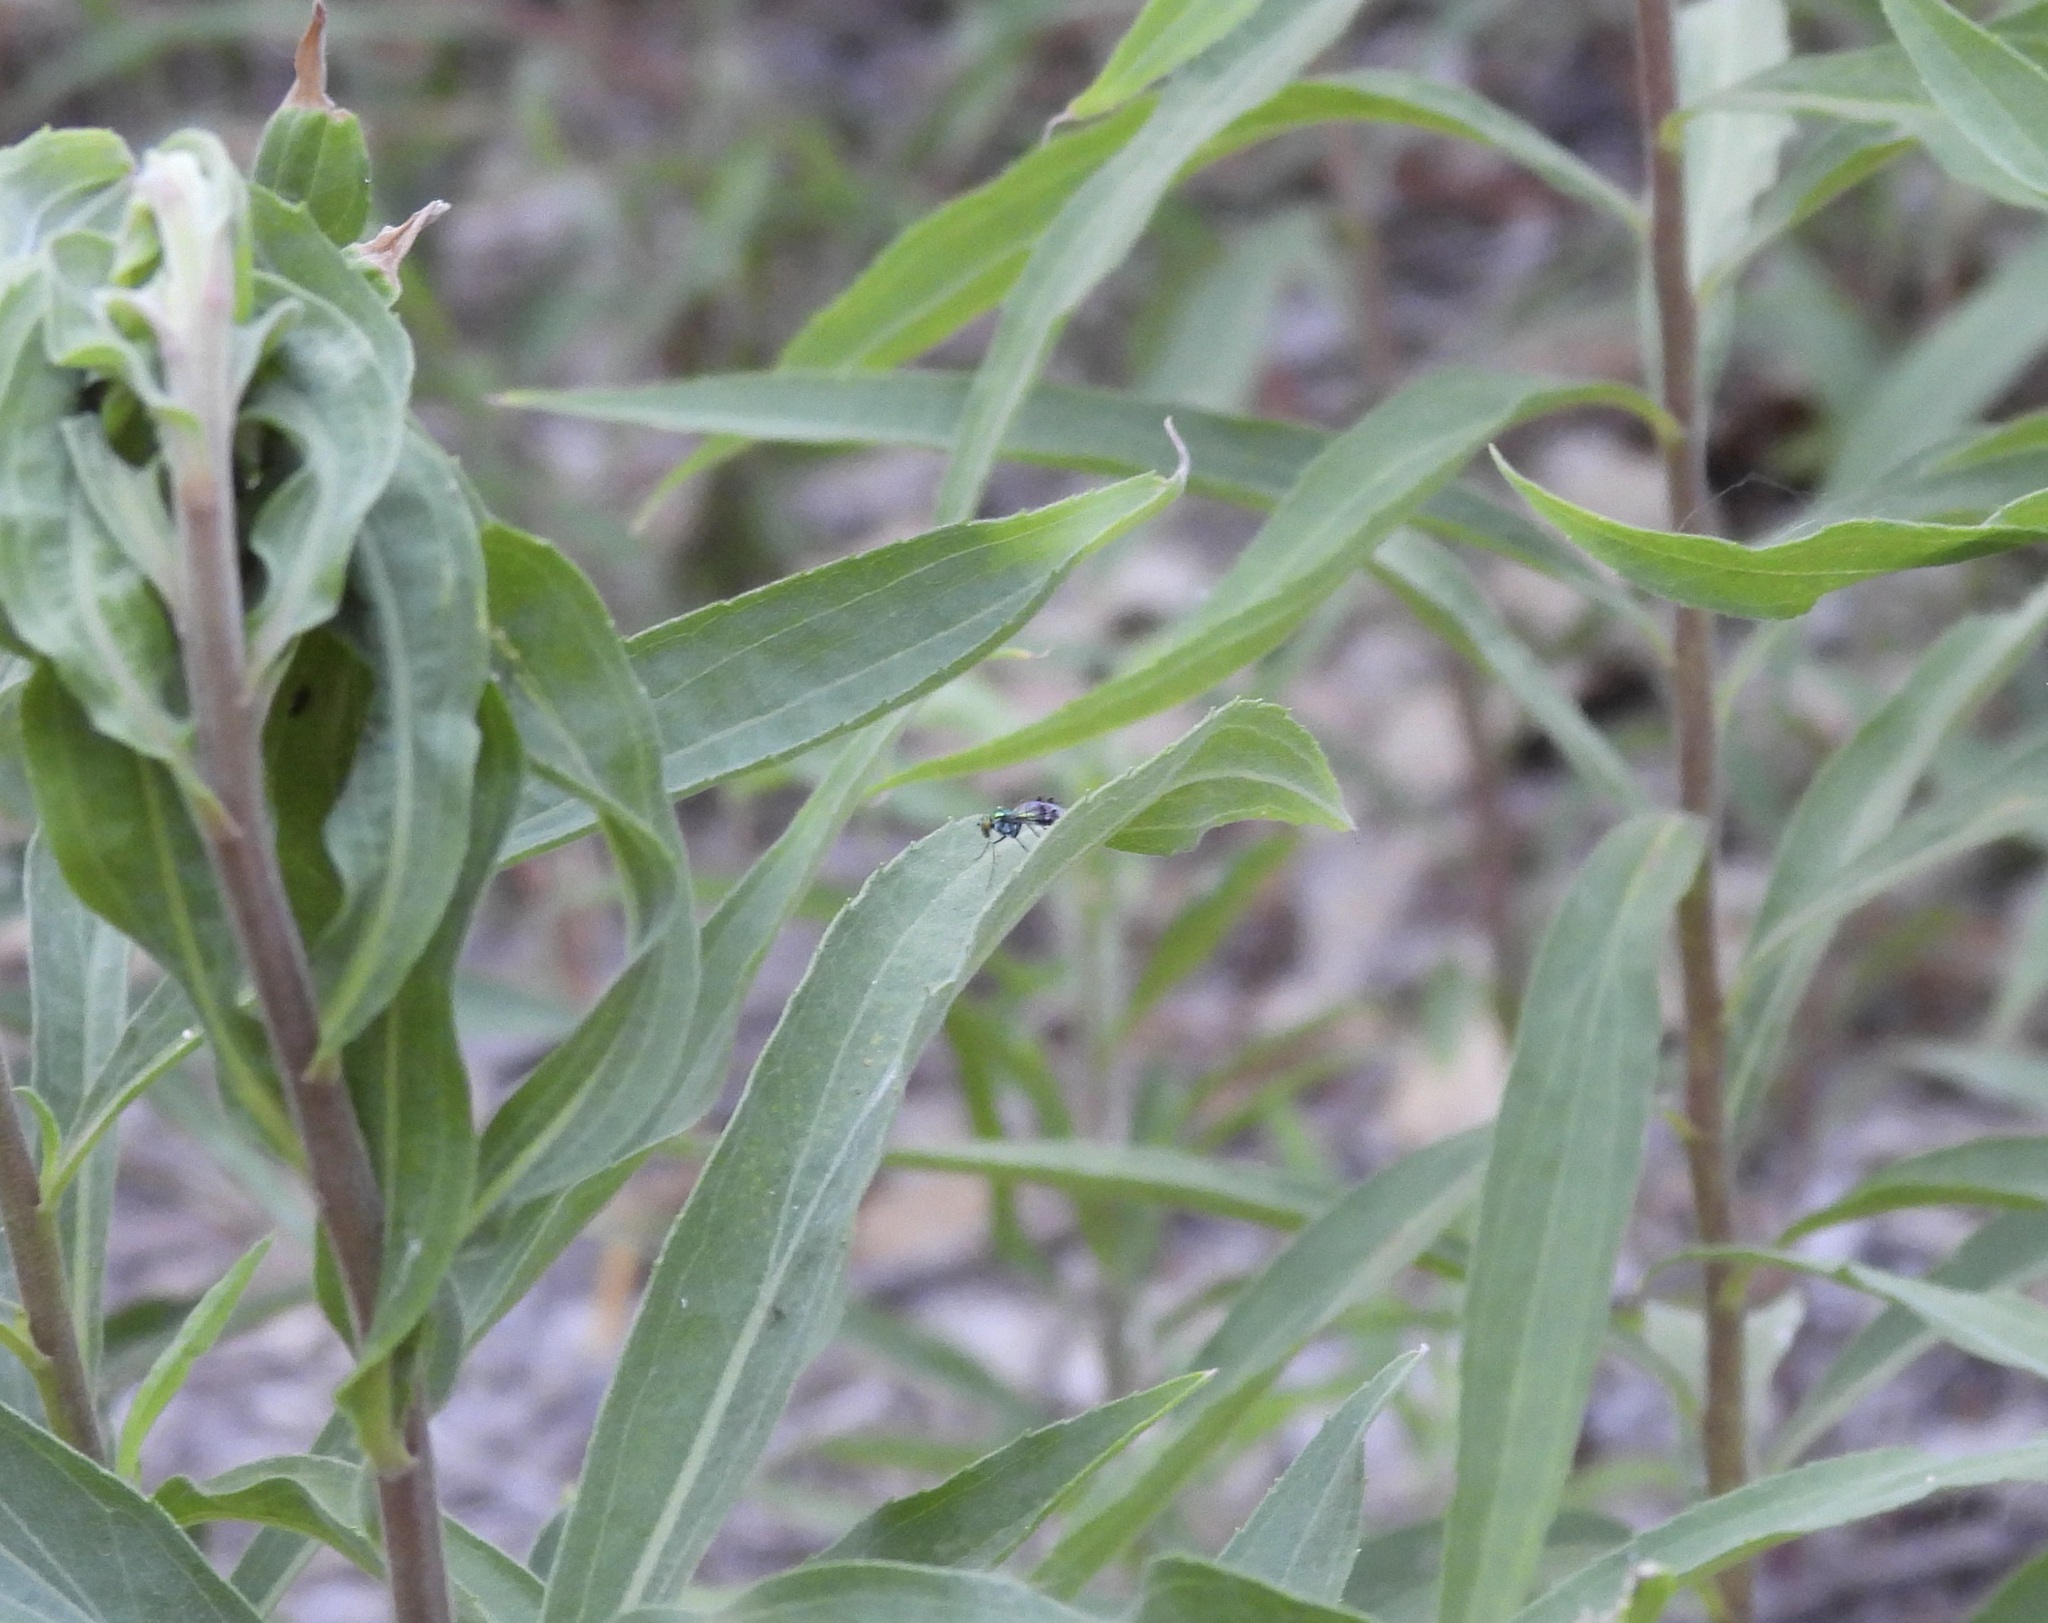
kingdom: Animalia
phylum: Arthropoda
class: Insecta
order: Diptera
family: Dolichopodidae
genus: Condylostylus
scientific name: Condylostylus
